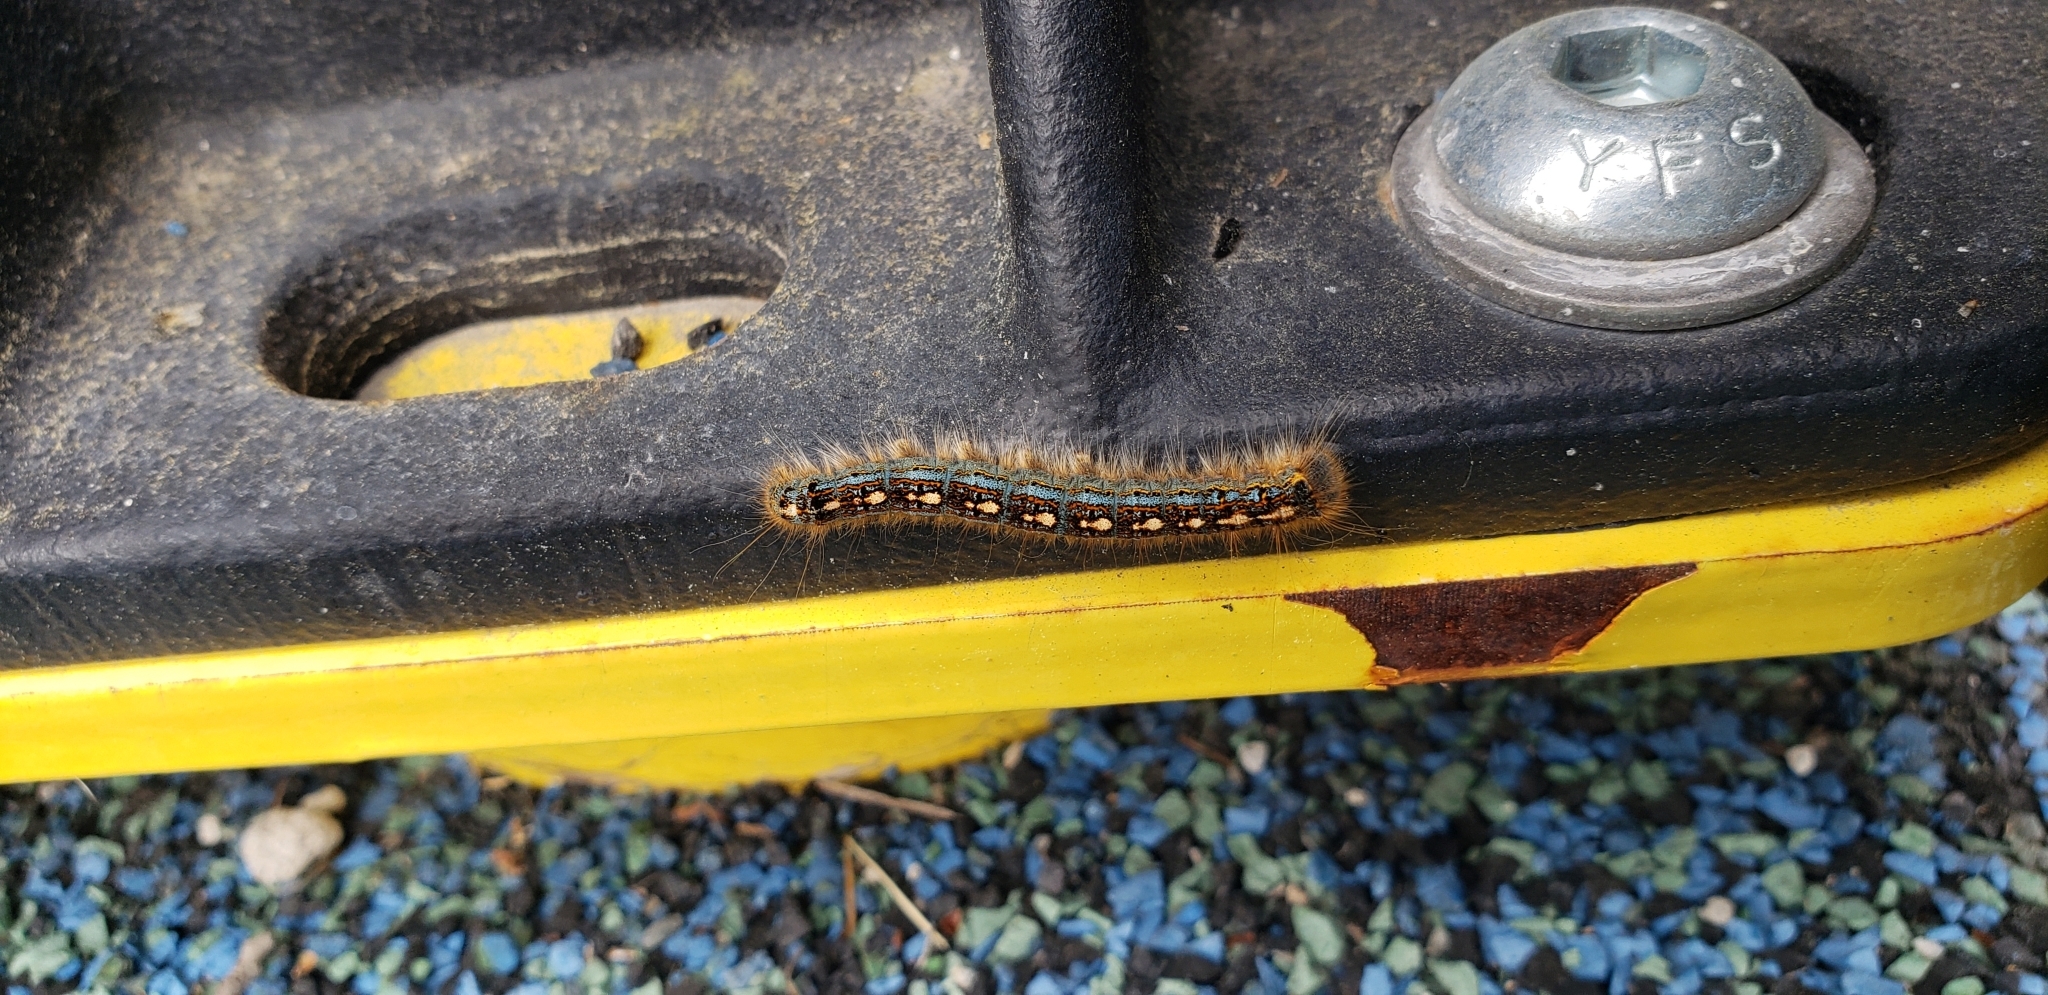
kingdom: Animalia
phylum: Arthropoda
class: Insecta
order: Lepidoptera
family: Lasiocampidae
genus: Malacosoma
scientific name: Malacosoma disstria
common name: Forest tent caterpillar
